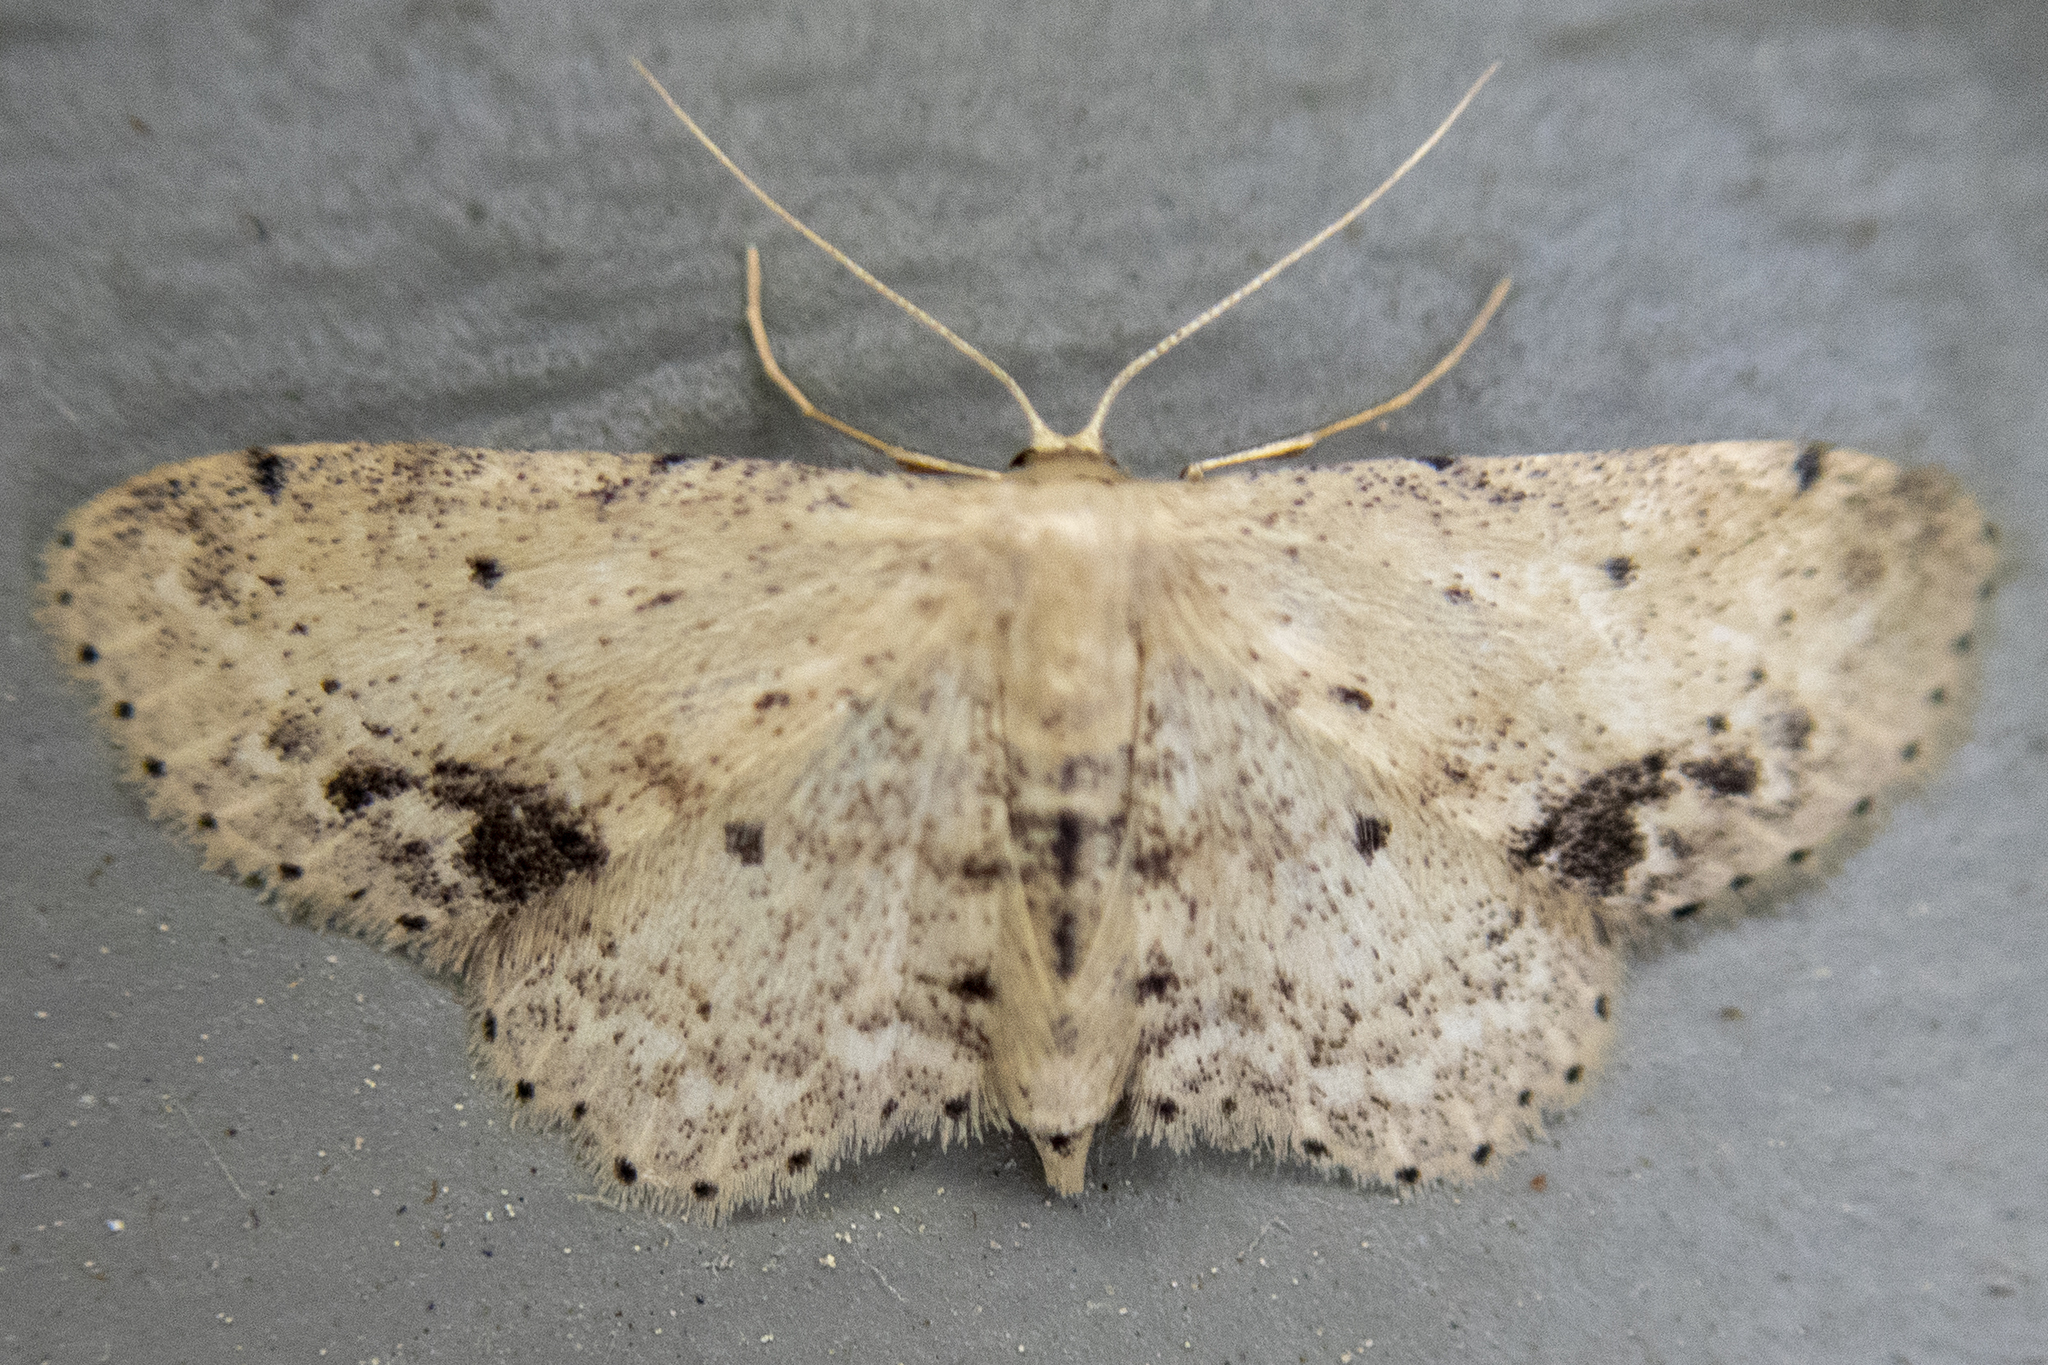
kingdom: Animalia
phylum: Arthropoda
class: Insecta
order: Lepidoptera
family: Geometridae
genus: Idaea
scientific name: Idaea dimidiata
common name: Single-dotted wave
